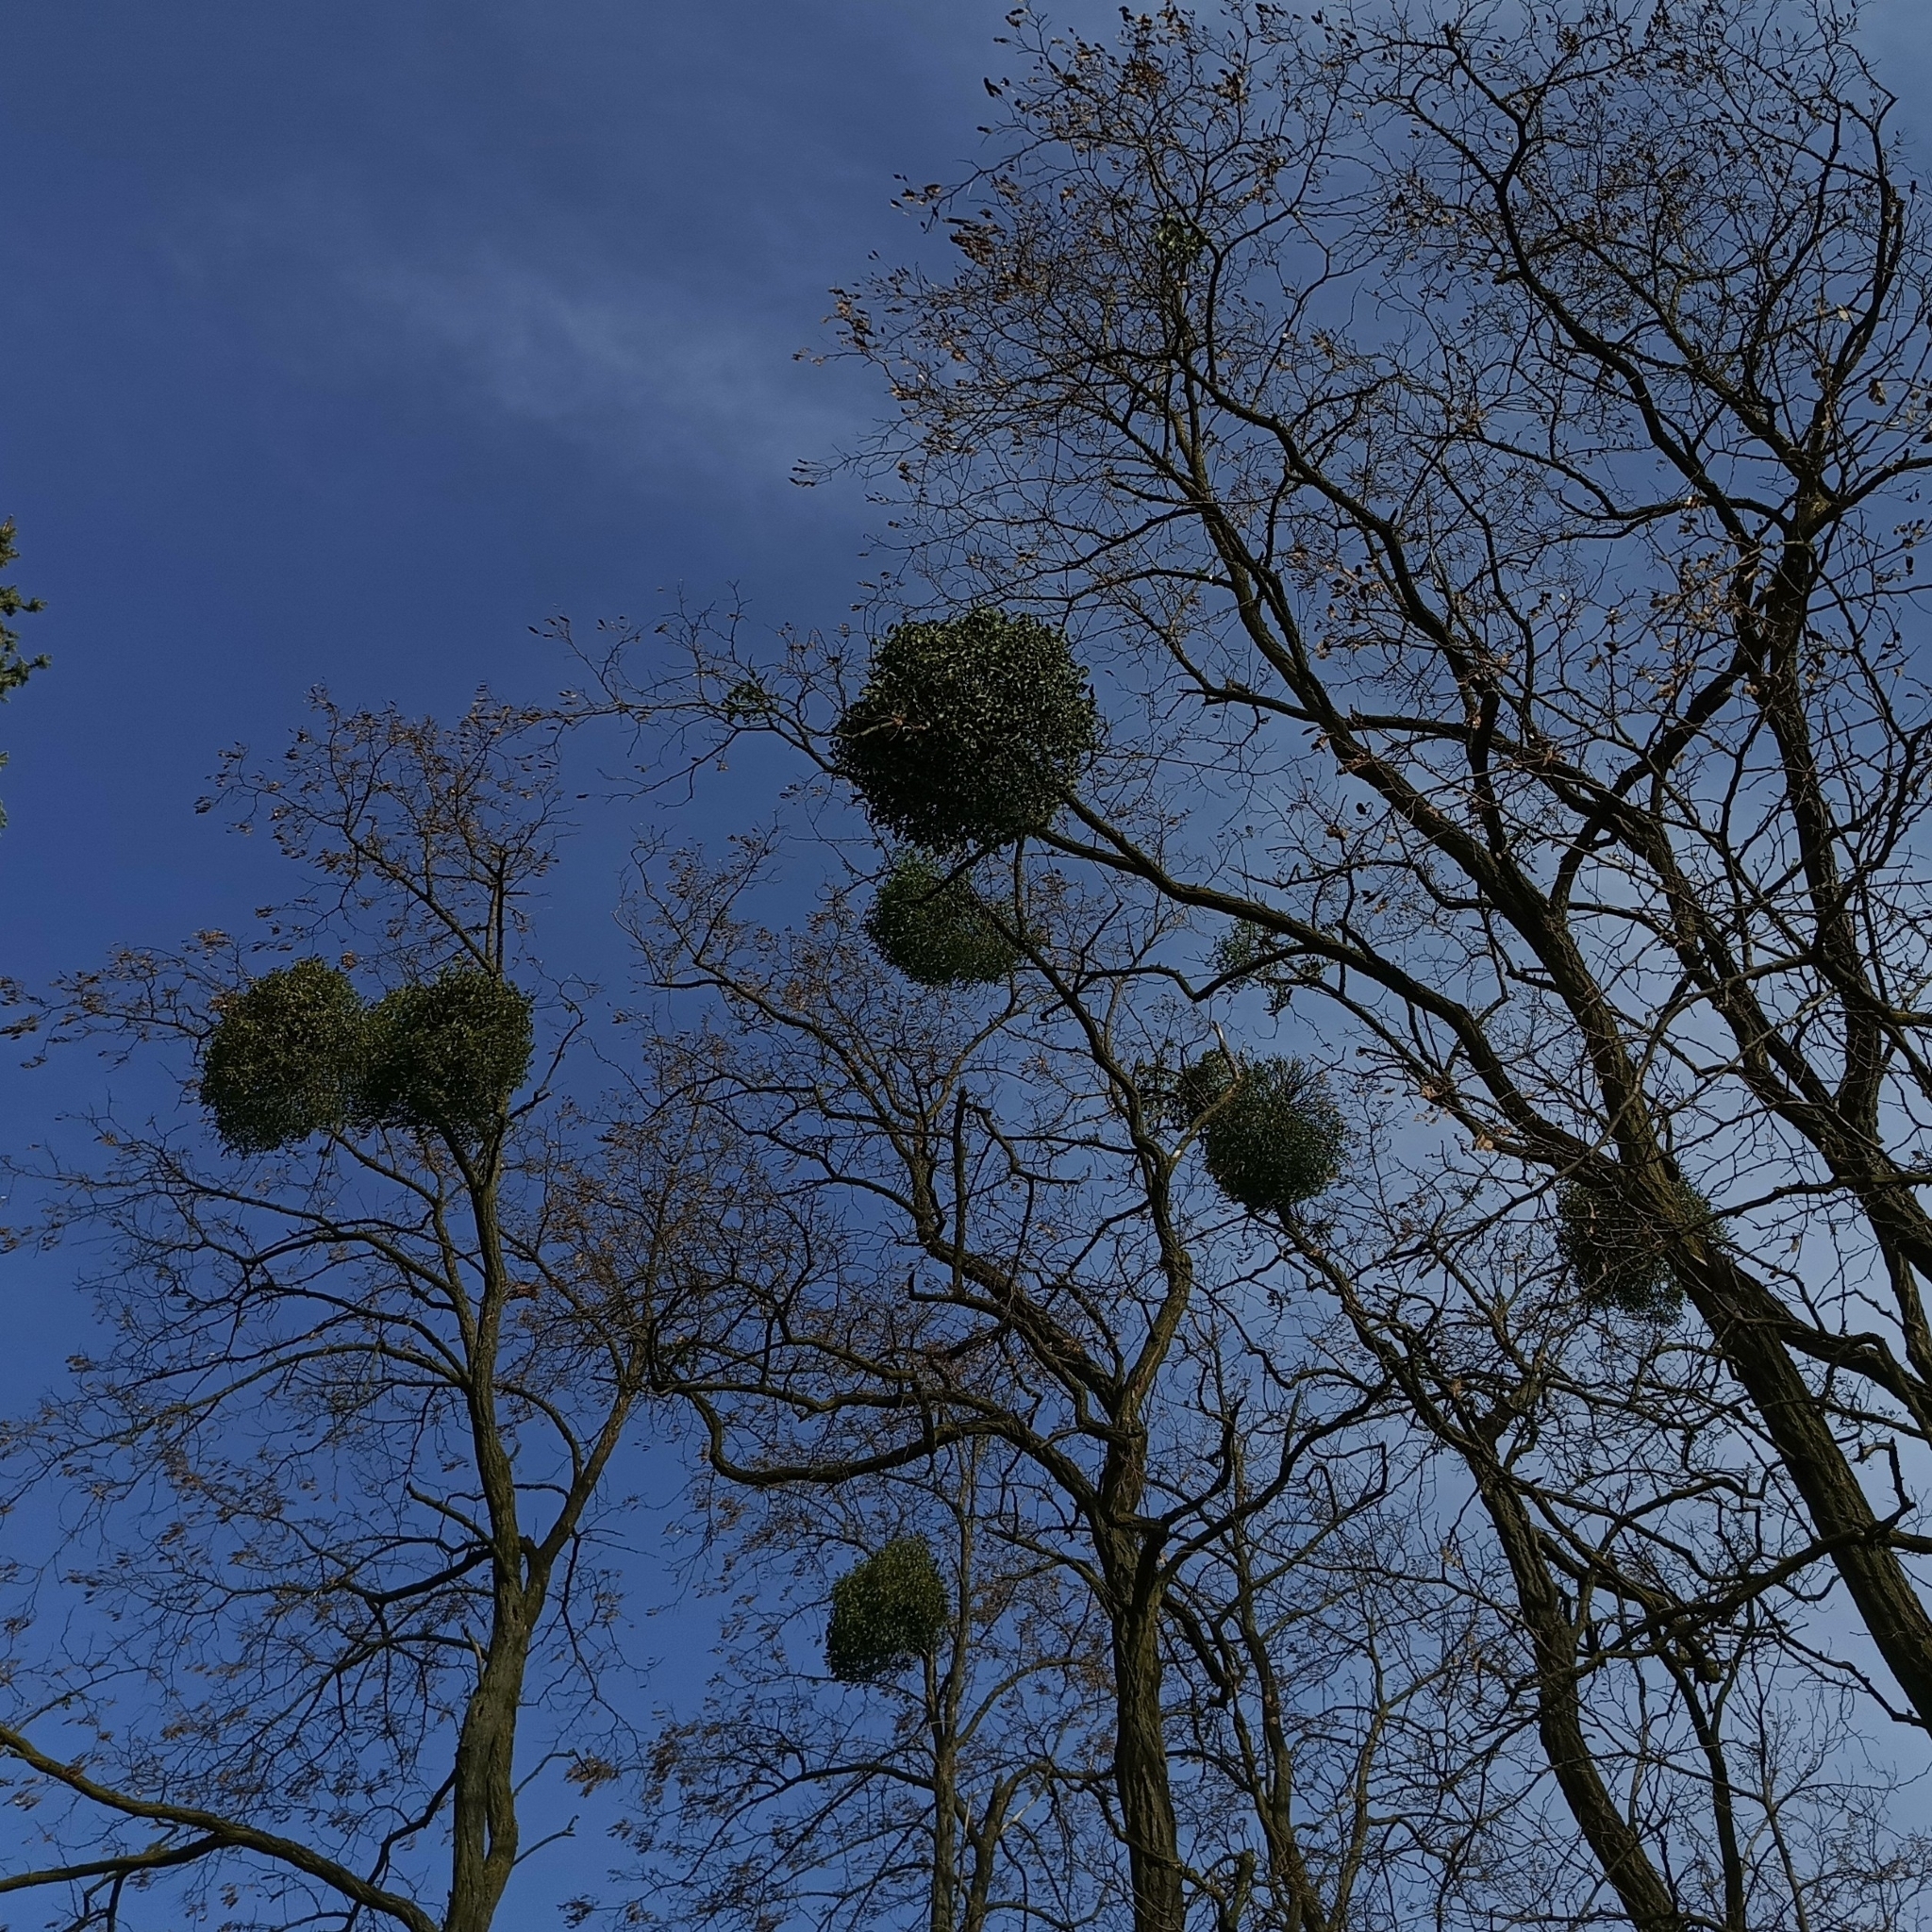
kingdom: Plantae
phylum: Tracheophyta
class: Magnoliopsida
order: Santalales
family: Viscaceae
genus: Viscum
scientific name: Viscum album
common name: Mistletoe
